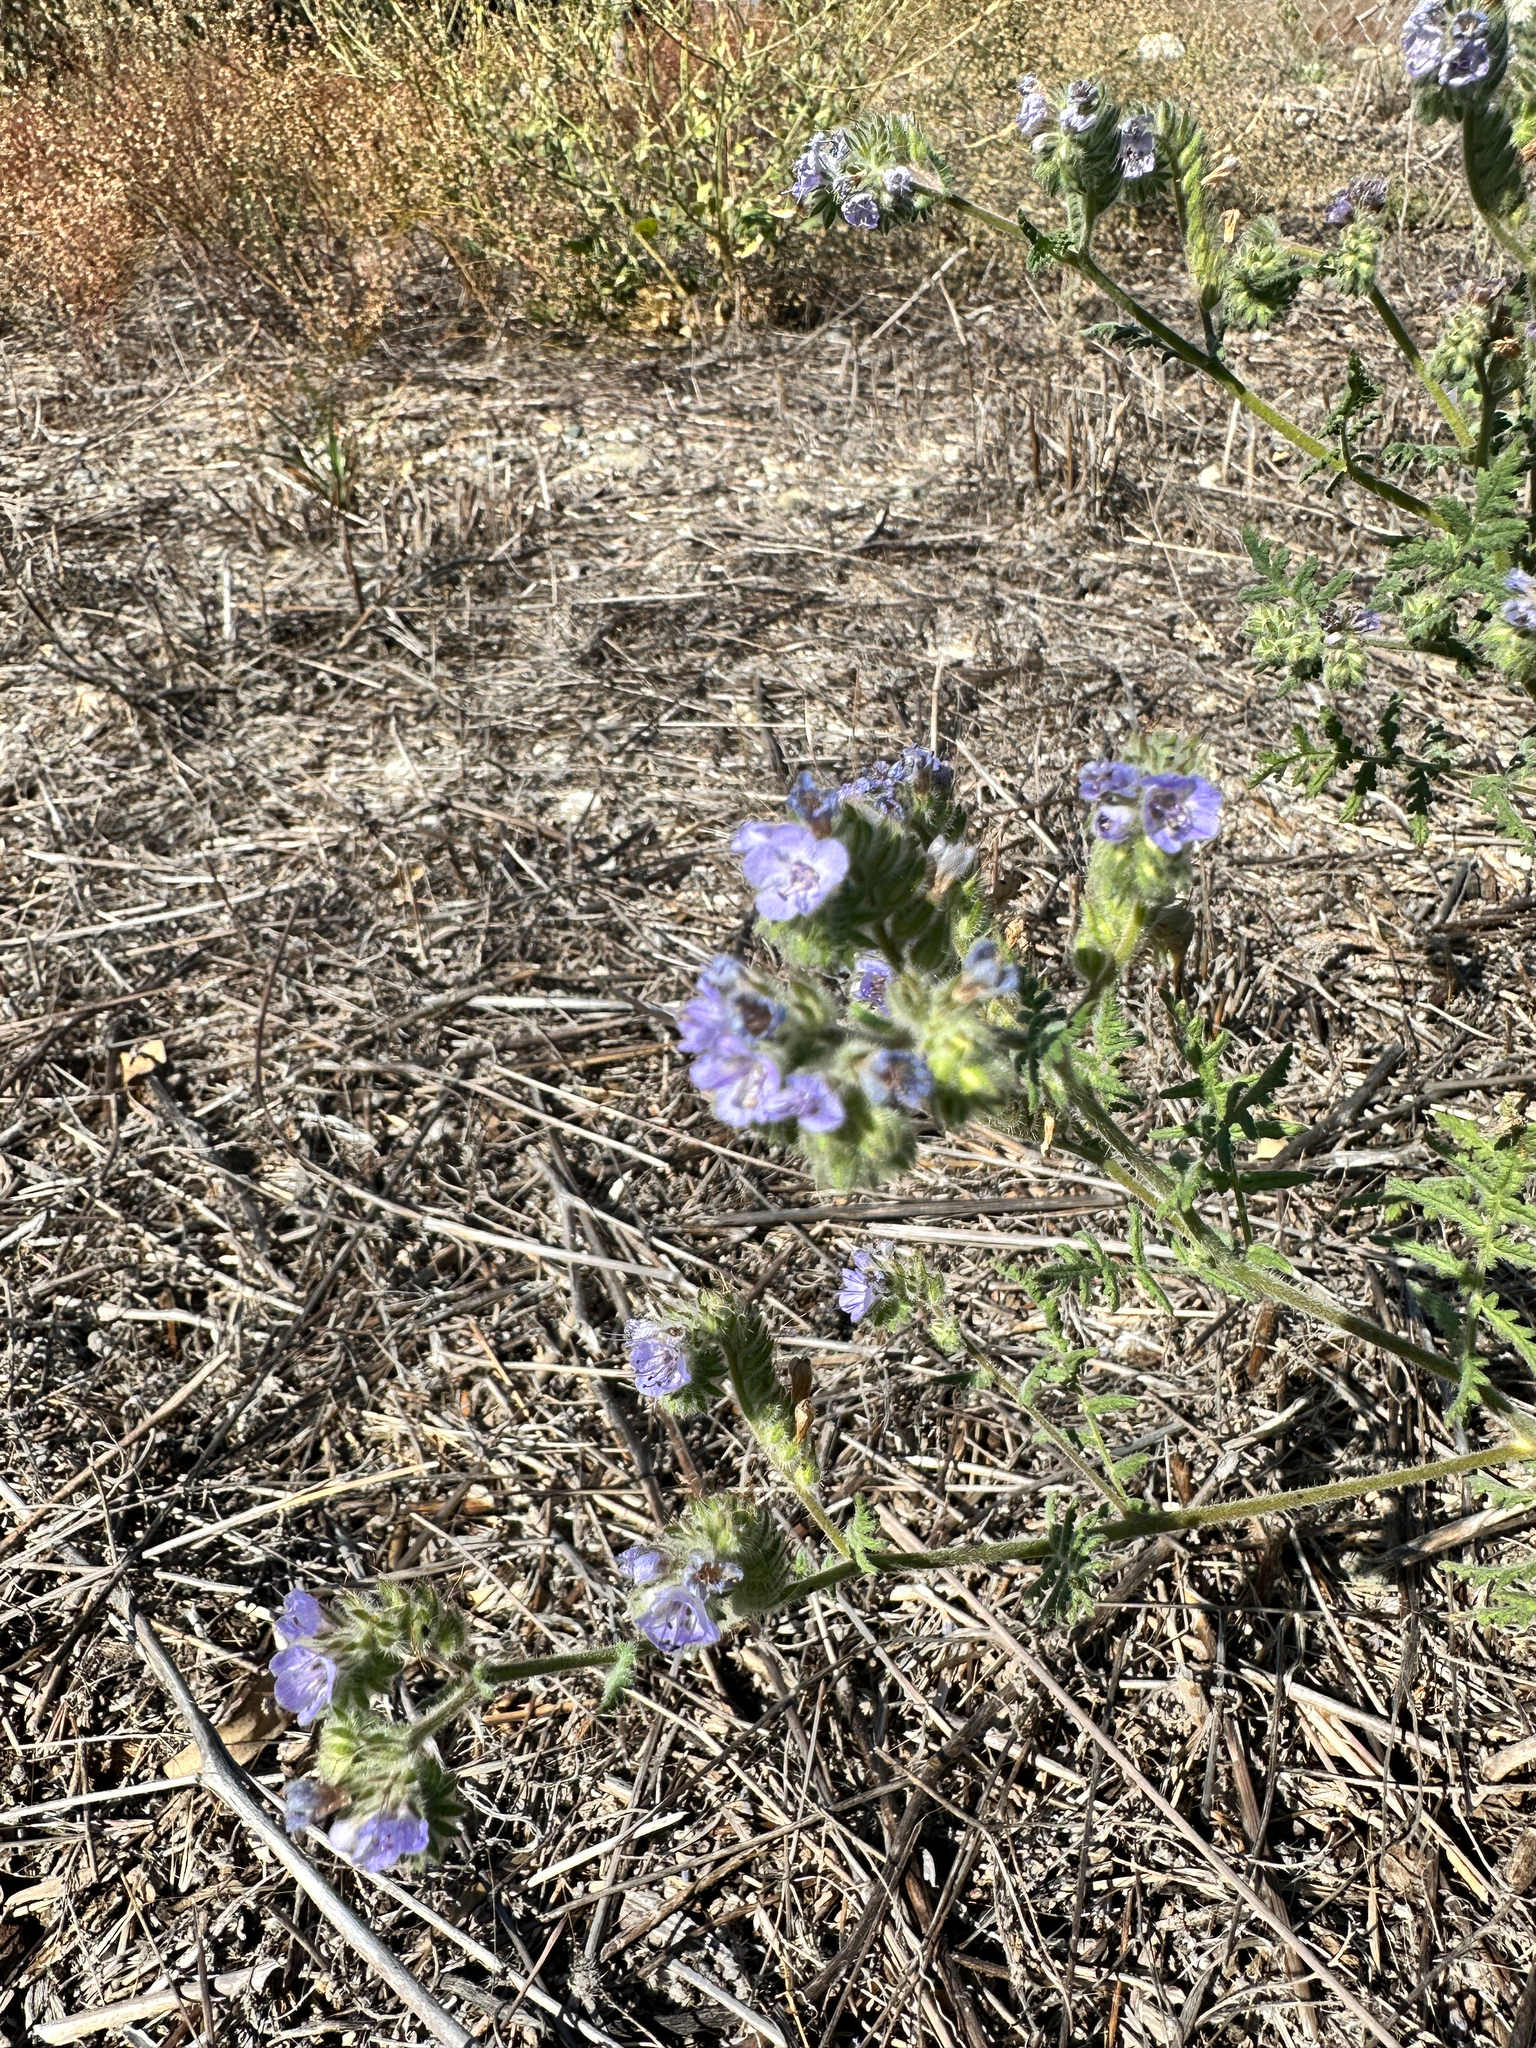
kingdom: Plantae
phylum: Tracheophyta
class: Magnoliopsida
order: Boraginales
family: Hydrophyllaceae
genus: Phacelia
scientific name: Phacelia distans
